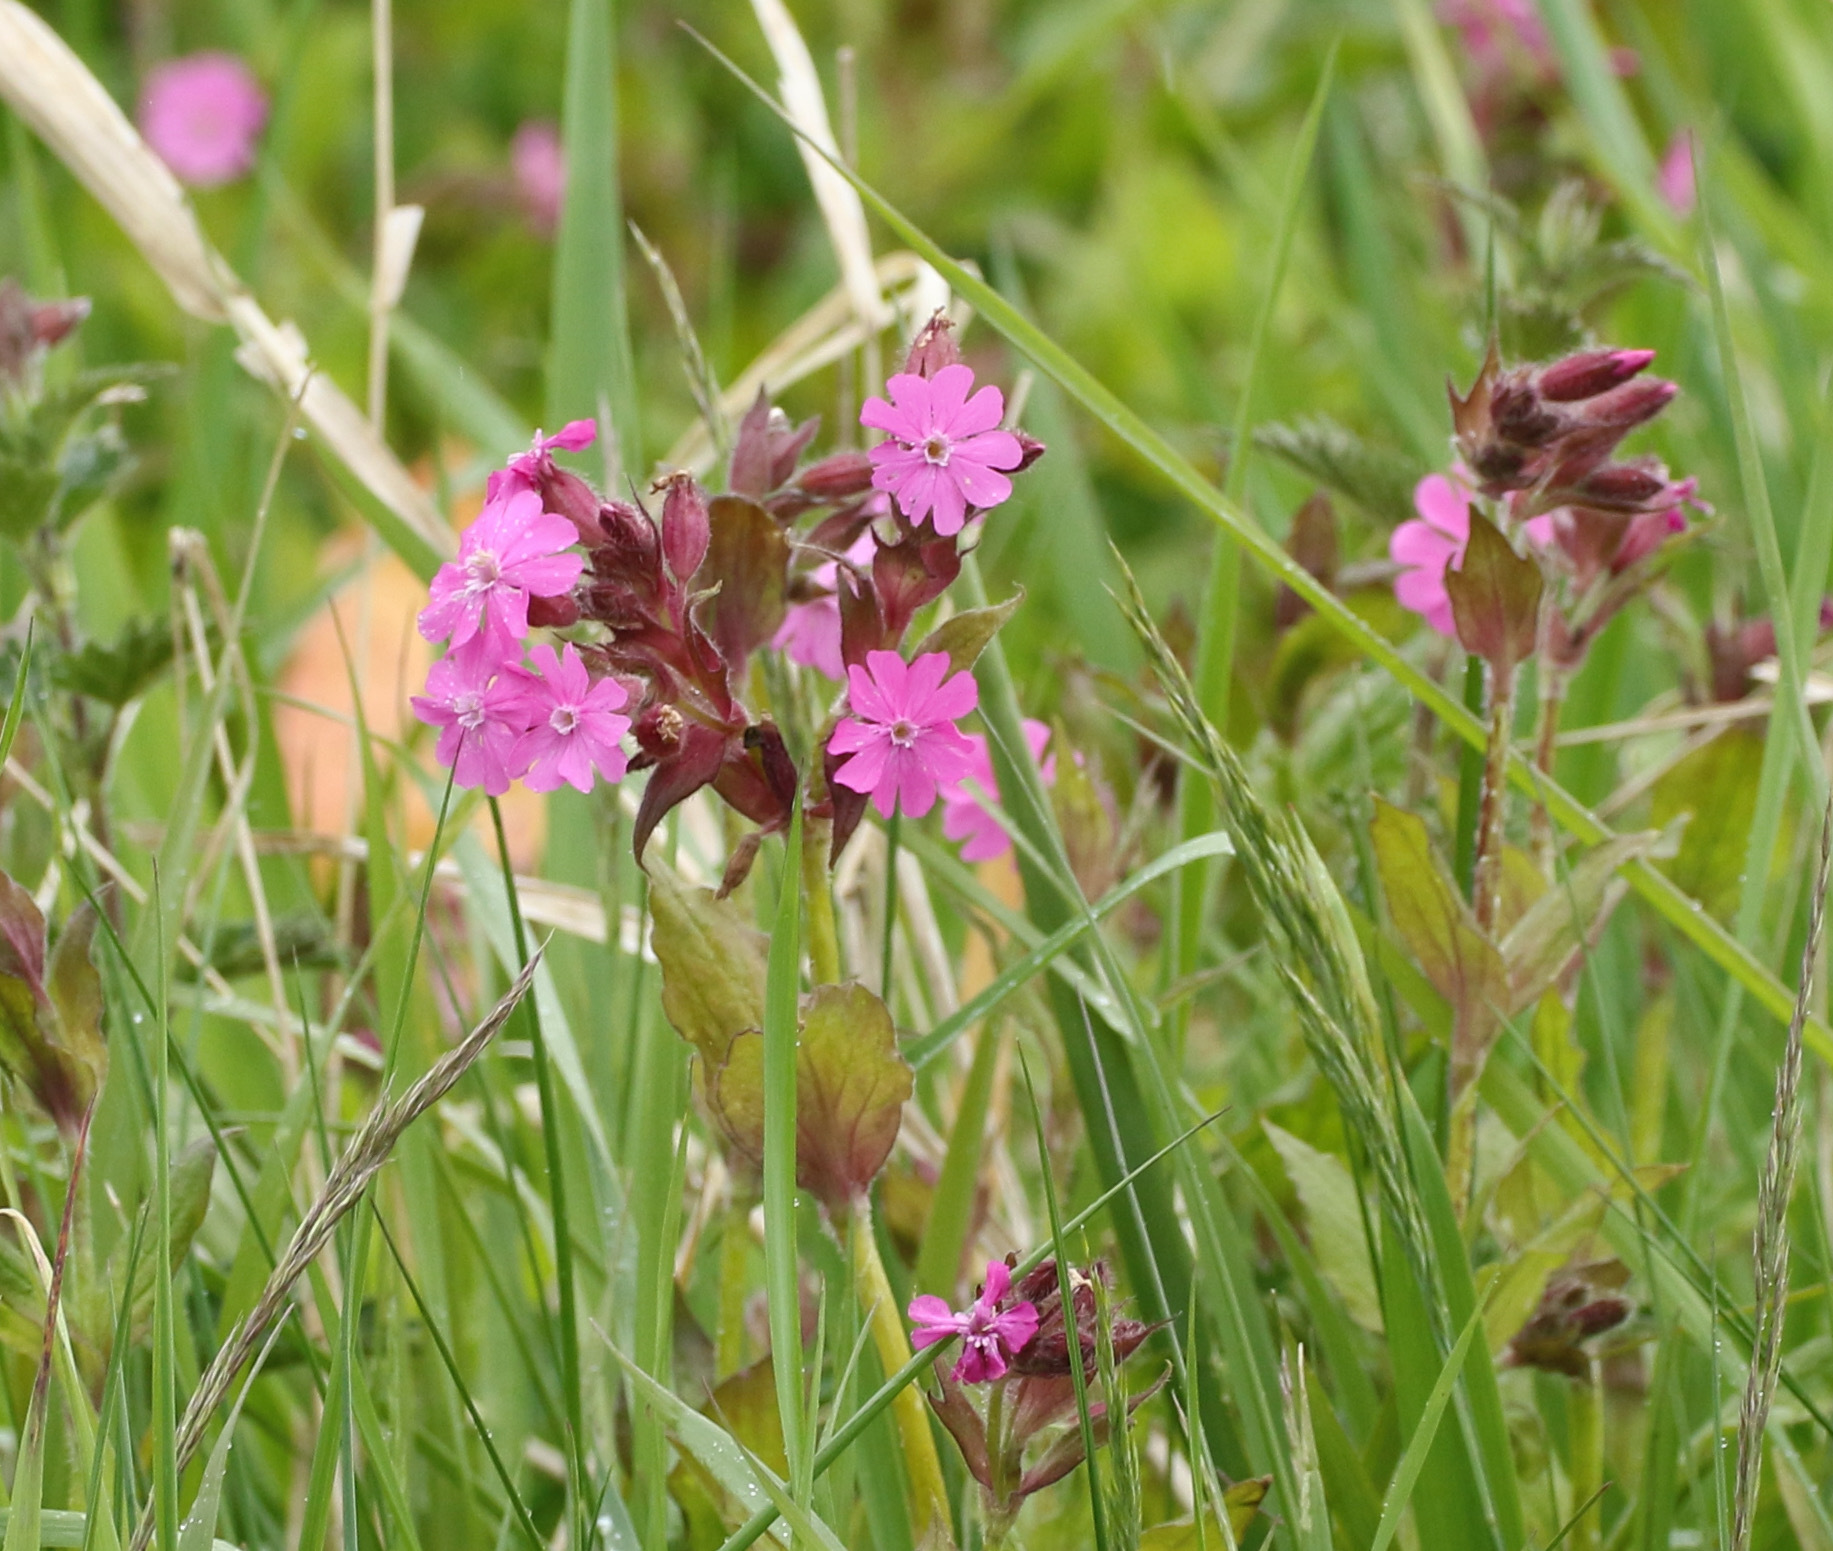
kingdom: Plantae
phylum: Tracheophyta
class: Magnoliopsida
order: Caryophyllales
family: Caryophyllaceae
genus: Silene
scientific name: Silene dioica
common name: Red campion
